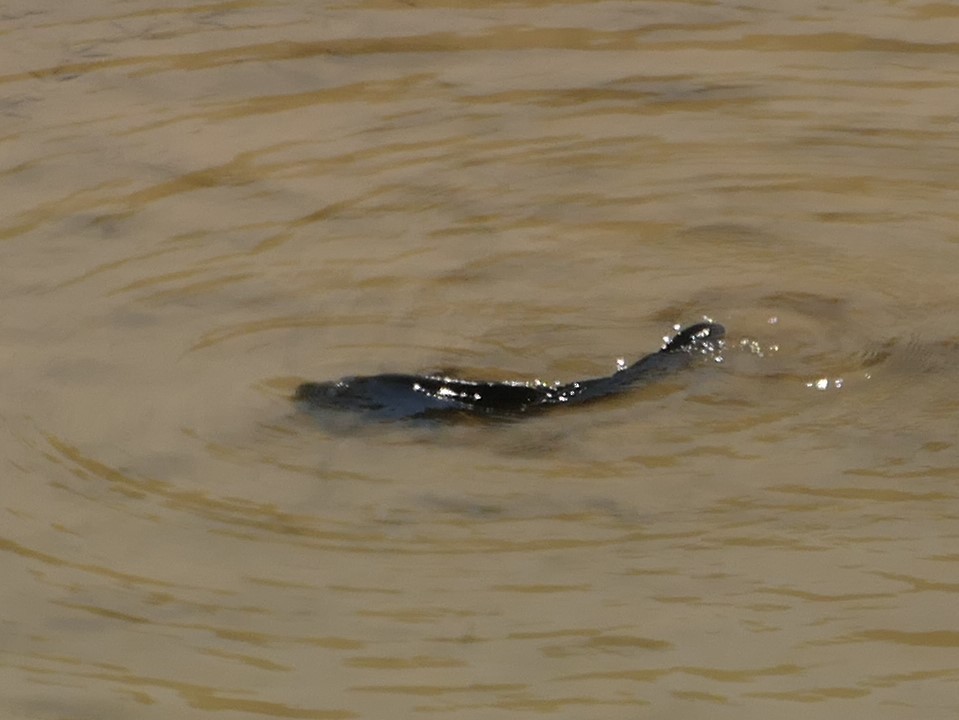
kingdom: Animalia
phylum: Chordata
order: Cypriniformes
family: Cyprinidae
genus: Cyprinus
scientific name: Cyprinus carpio
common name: Common carp
